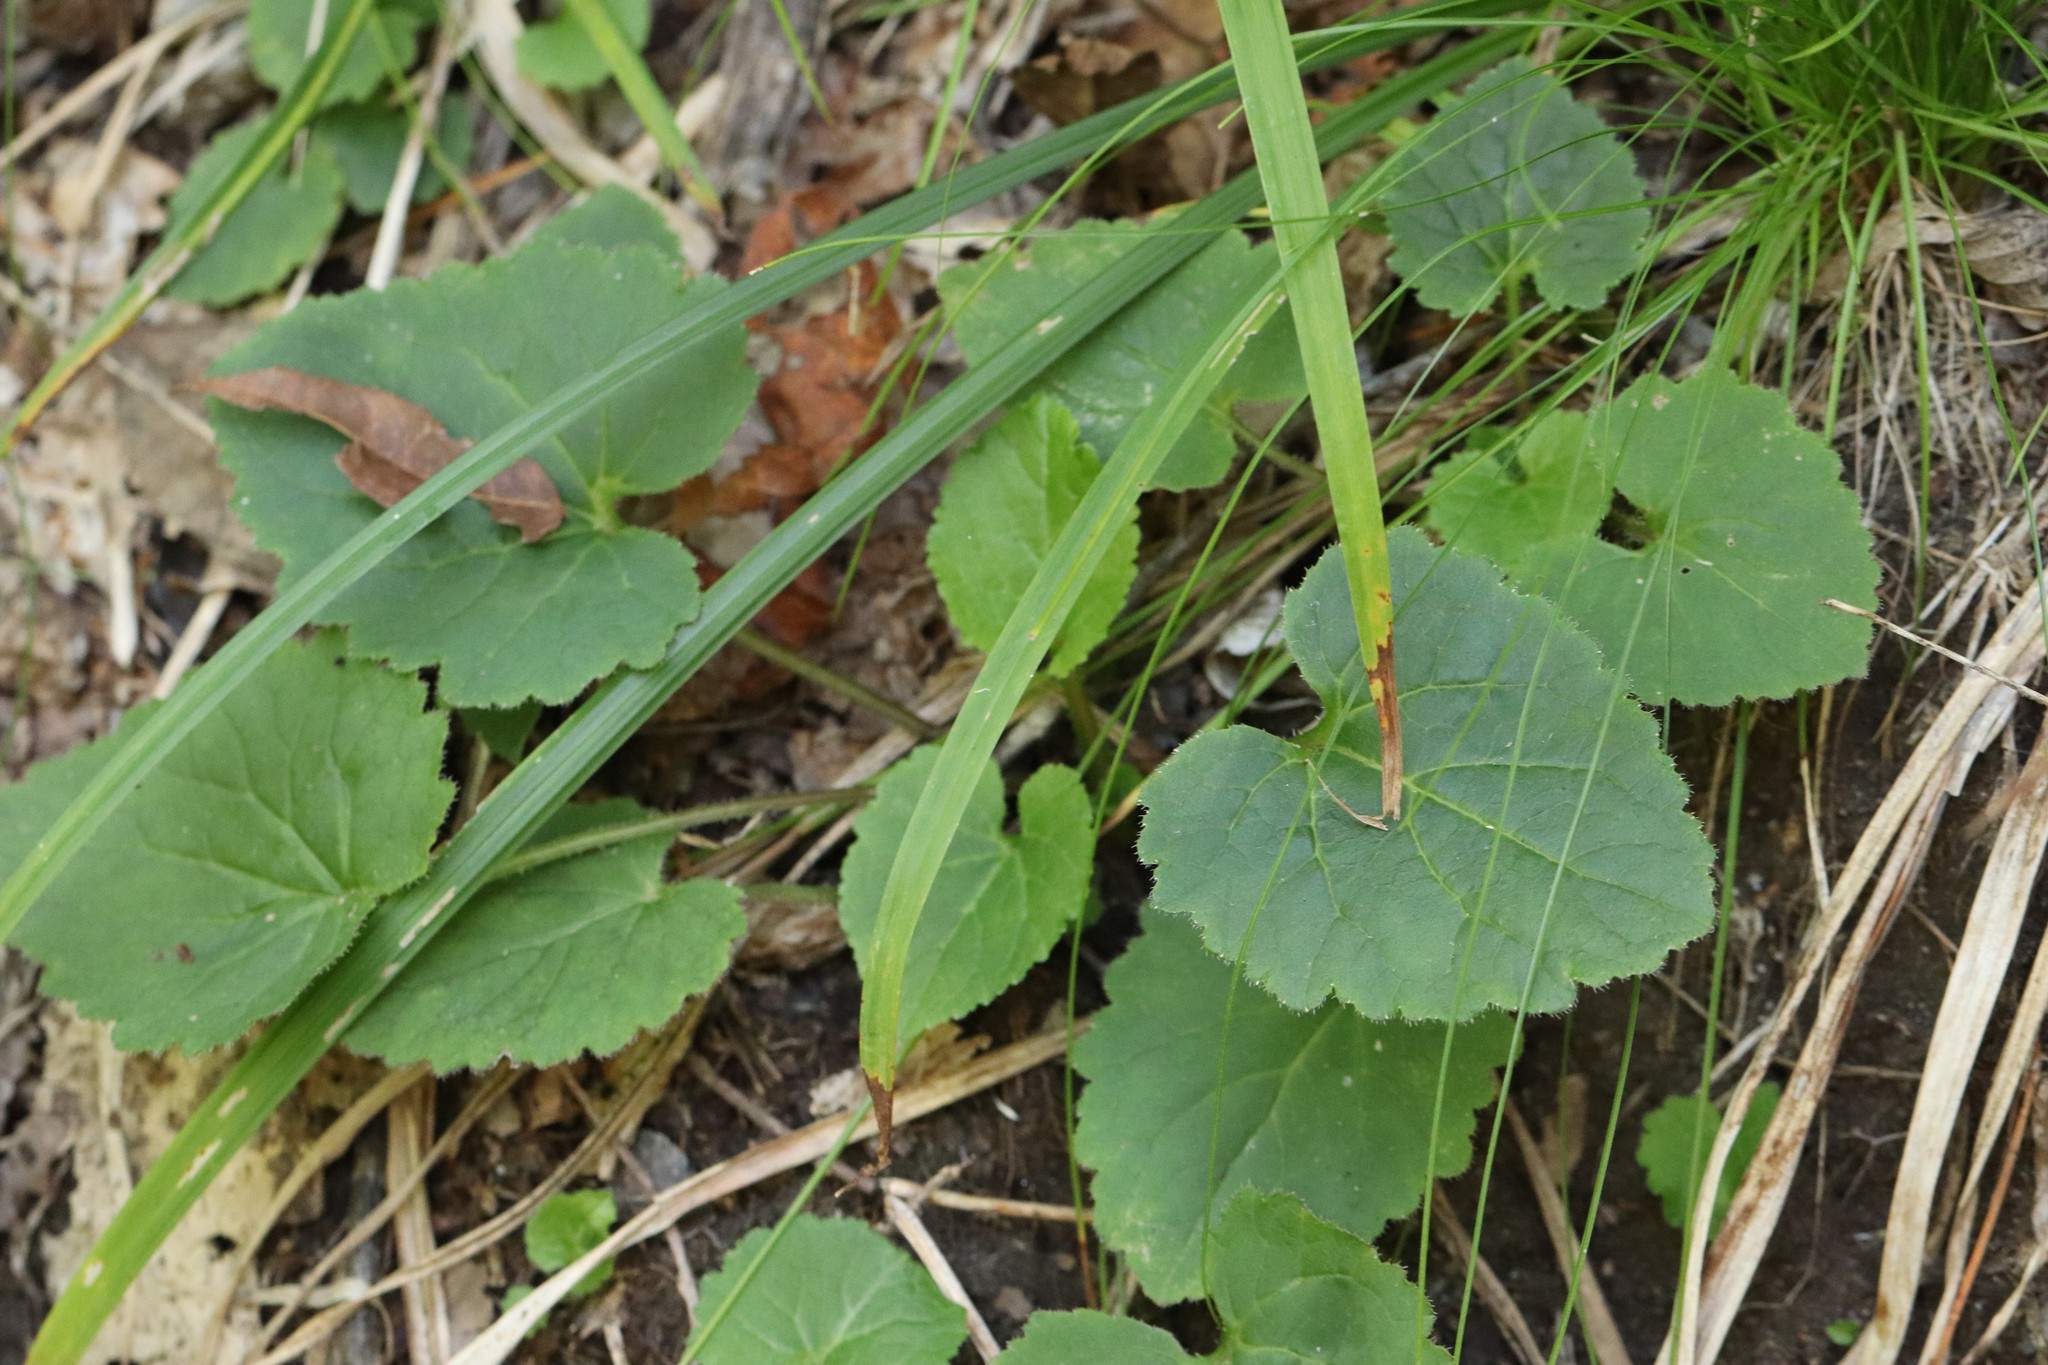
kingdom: Plantae
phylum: Tracheophyta
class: Magnoliopsida
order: Asterales
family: Campanulaceae
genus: Campanula
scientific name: Campanula punctata
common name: Spotted bellflower
